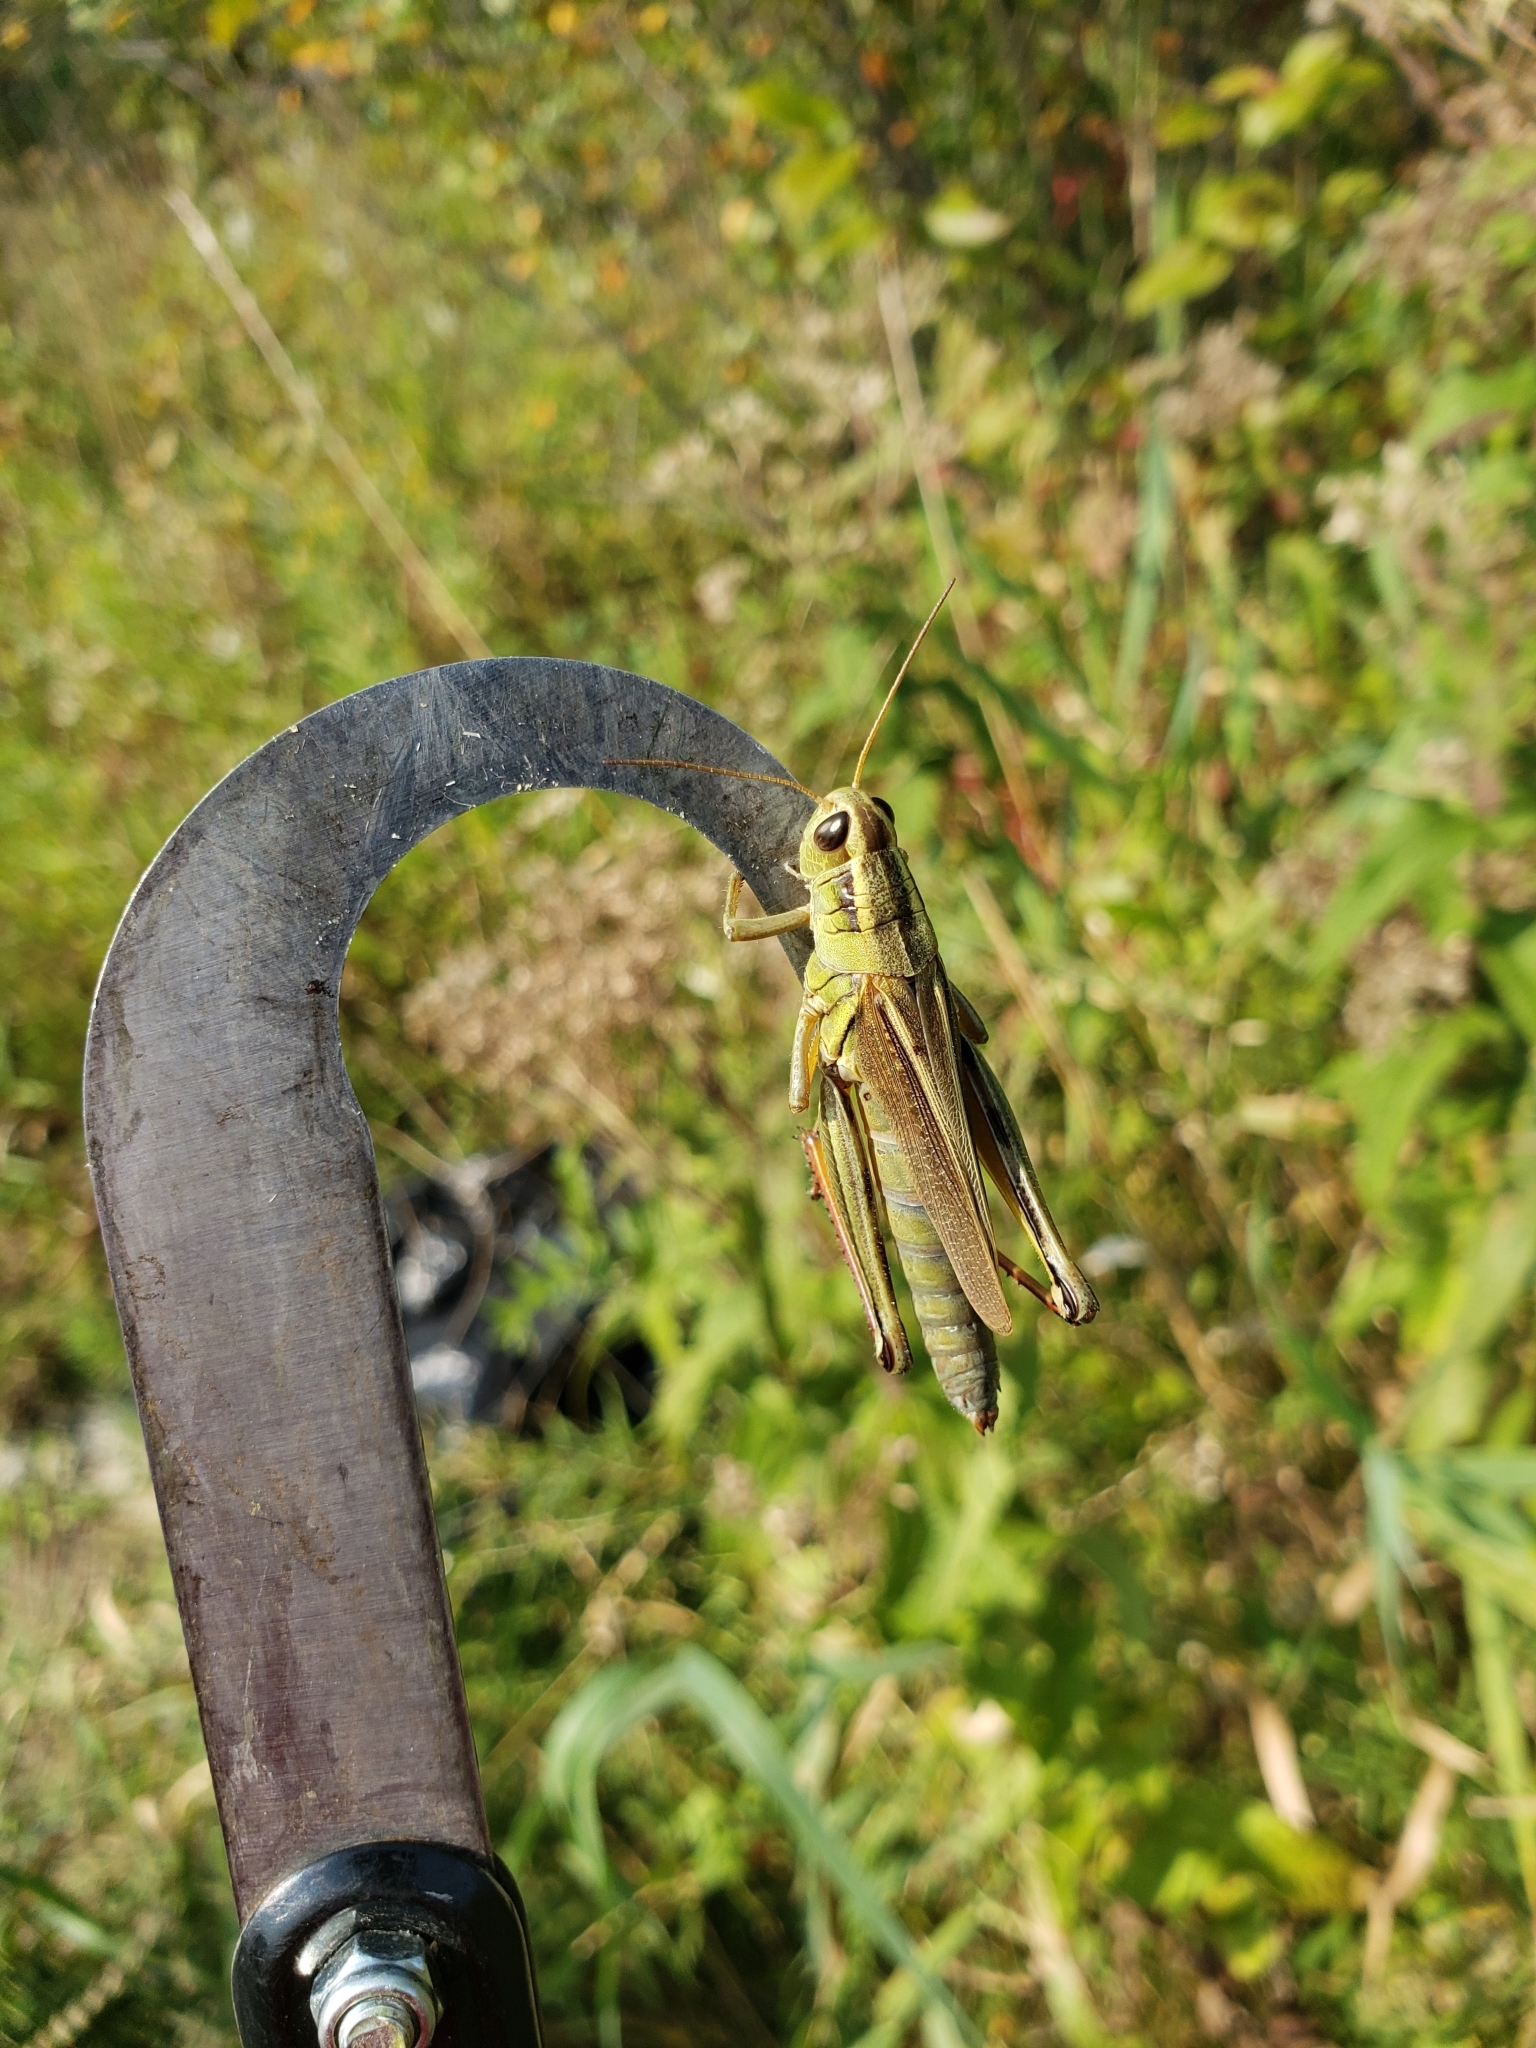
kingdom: Animalia
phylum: Arthropoda
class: Insecta
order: Orthoptera
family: Acrididae
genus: Melanoplus
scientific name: Melanoplus bivittatus
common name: Two-striped grasshopper
